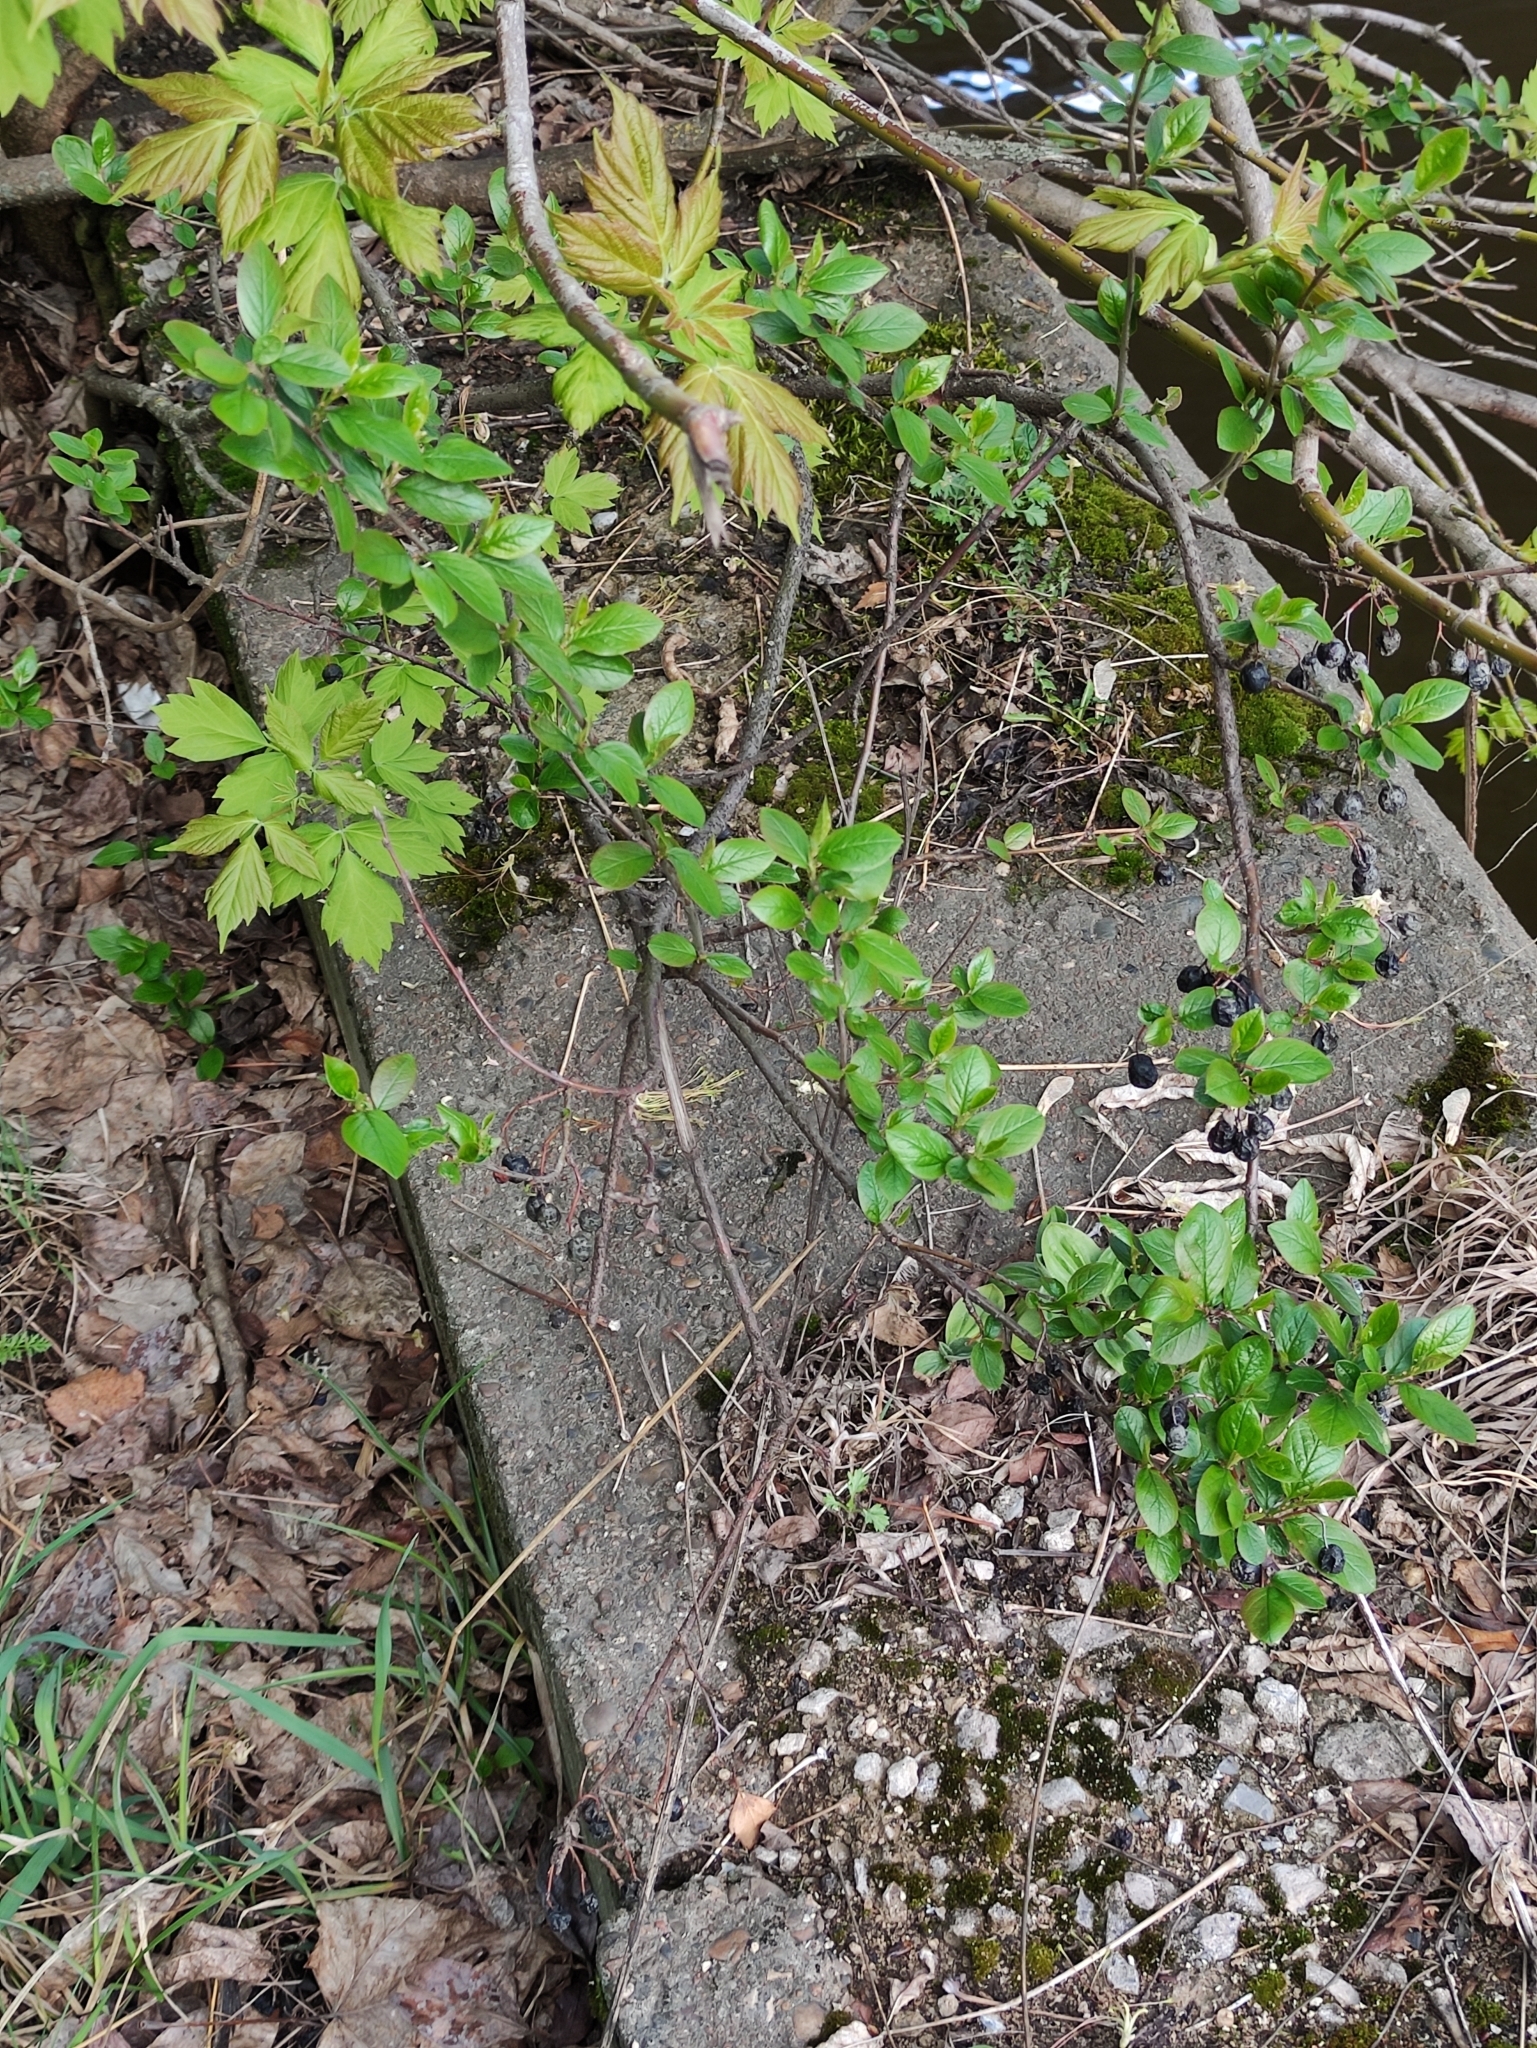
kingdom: Plantae
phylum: Tracheophyta
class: Magnoliopsida
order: Rosales
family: Rosaceae
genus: Cotoneaster
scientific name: Cotoneaster acutifolius
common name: Peking cotoneaster
